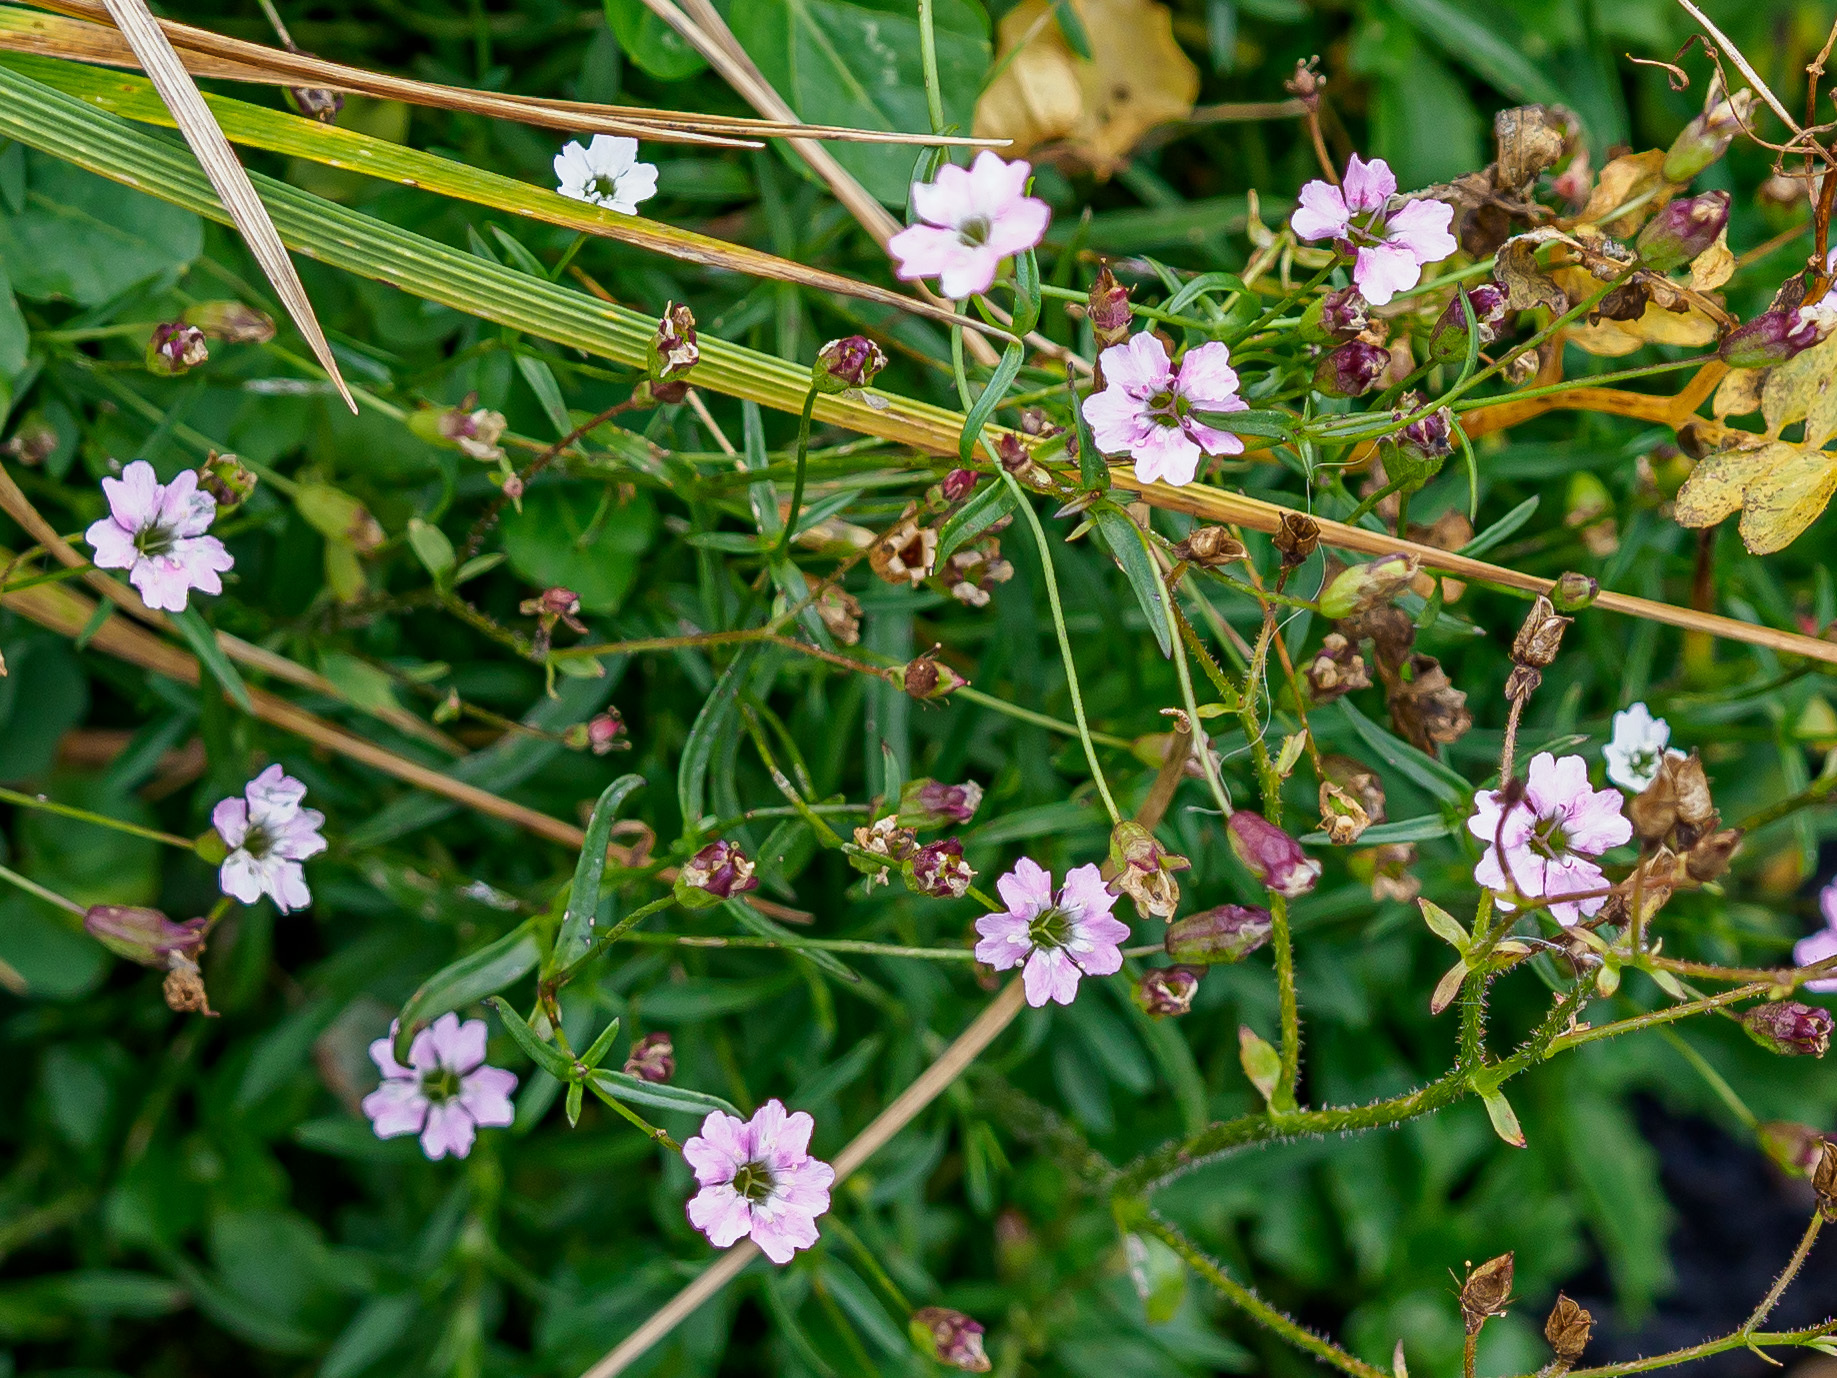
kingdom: Plantae
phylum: Tracheophyta
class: Magnoliopsida
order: Caryophyllales
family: Caryophyllaceae
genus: Heliosperma
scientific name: Heliosperma pudibundum
